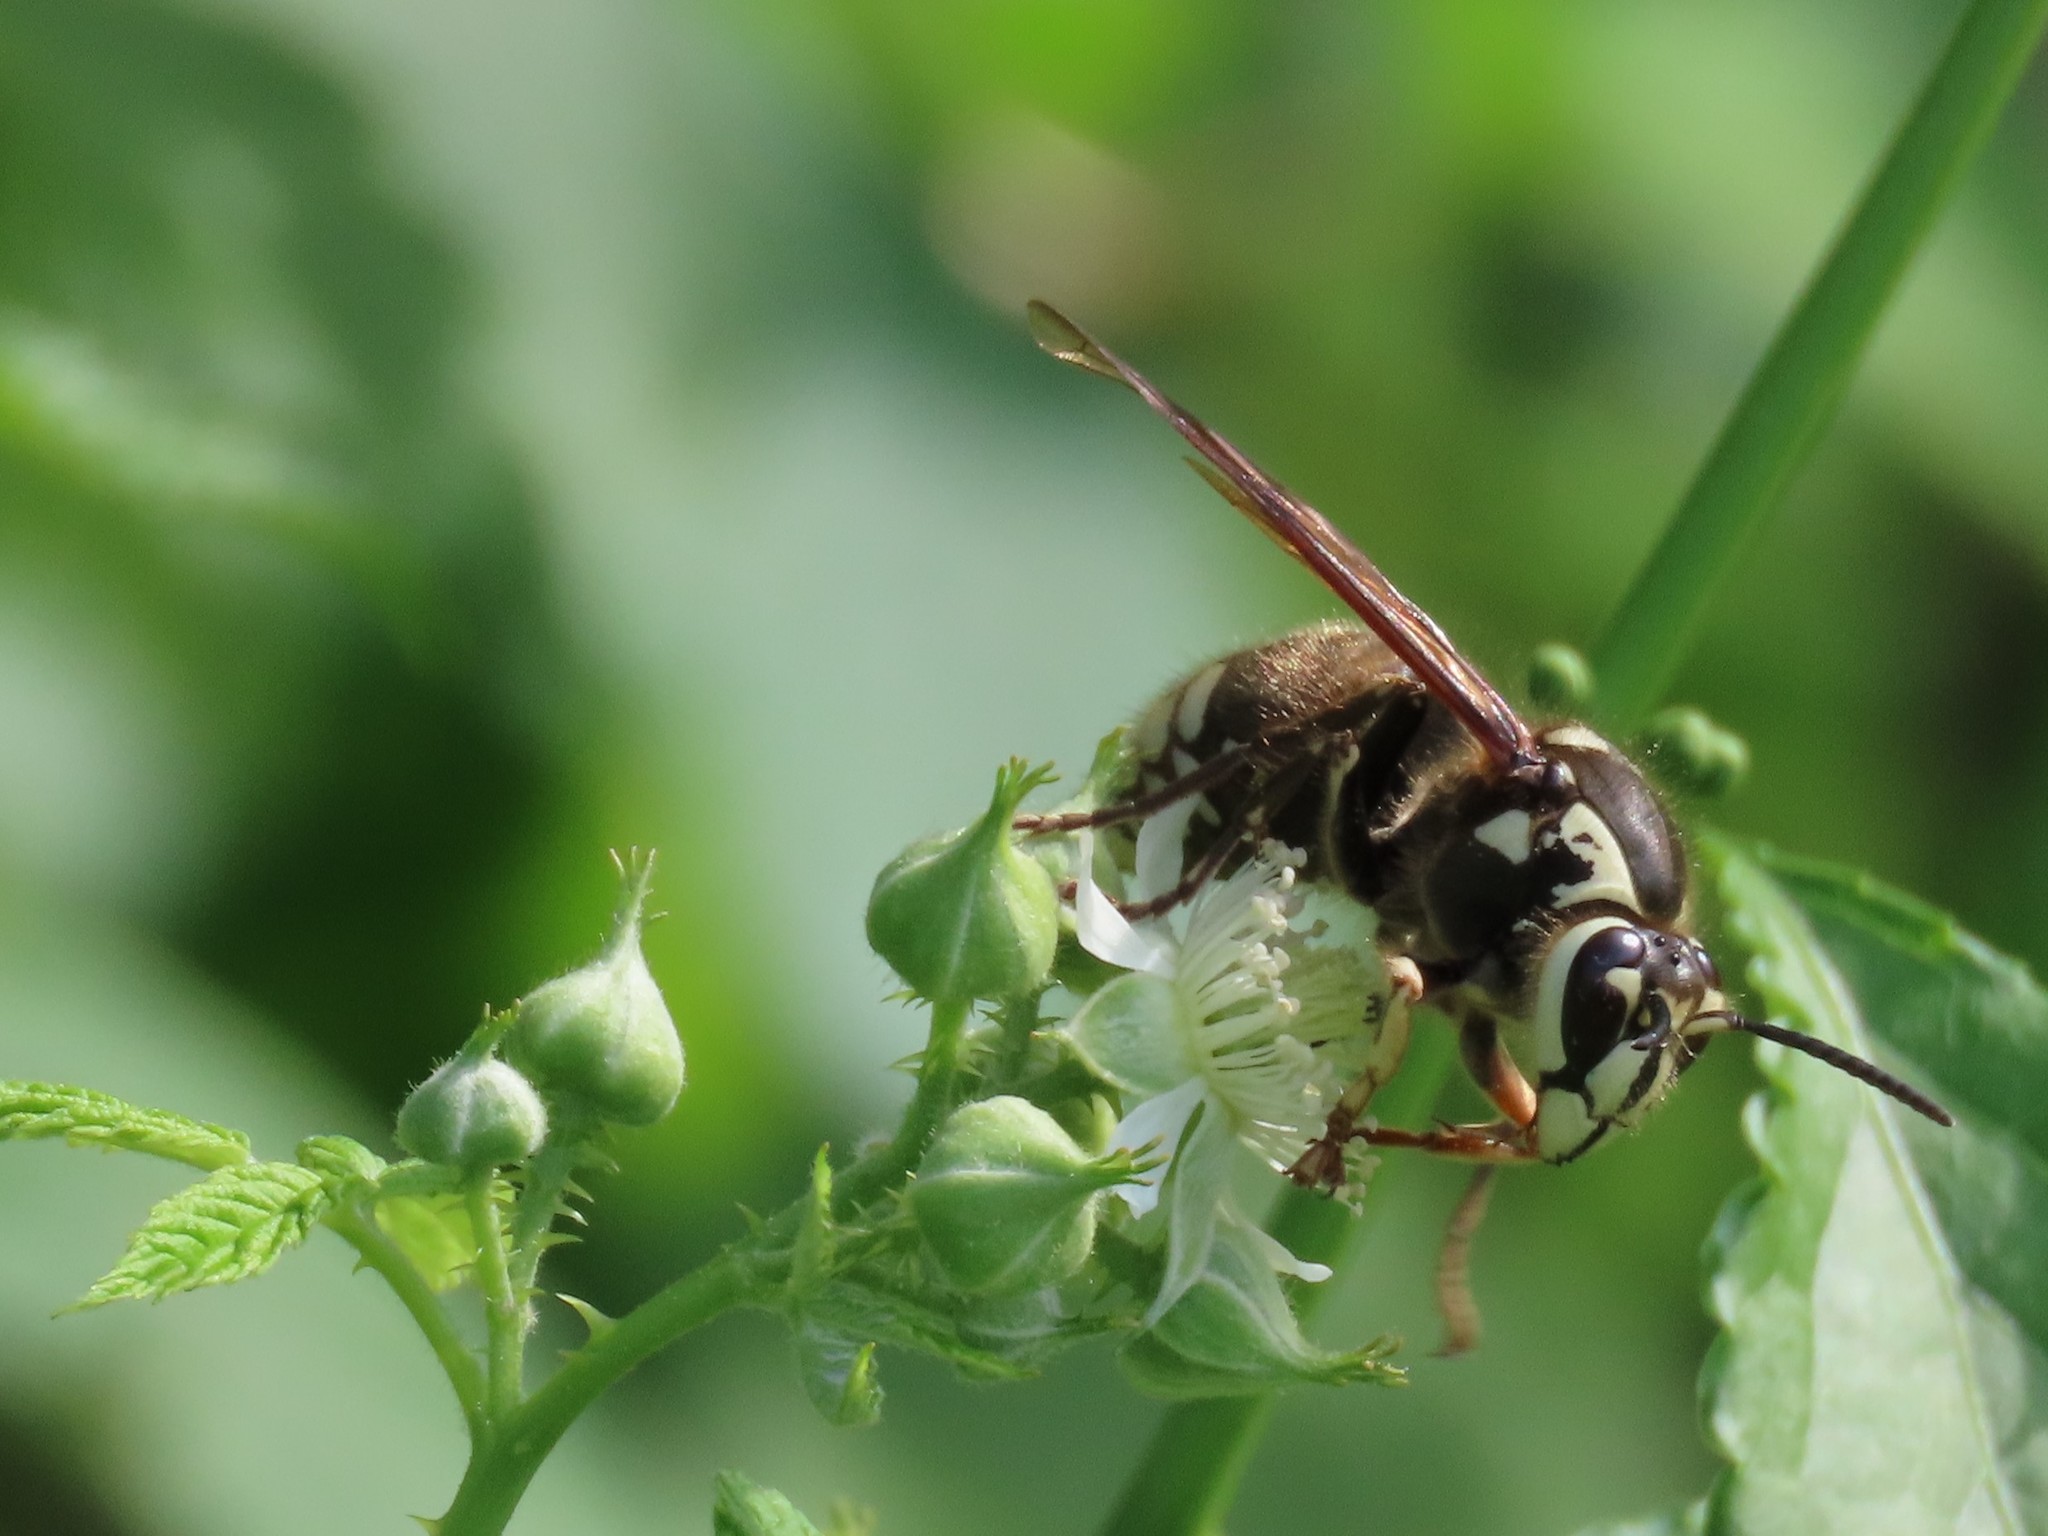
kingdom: Animalia
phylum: Arthropoda
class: Insecta
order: Hymenoptera
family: Vespidae
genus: Dolichovespula
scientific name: Dolichovespula maculata
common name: Bald-faced hornet
